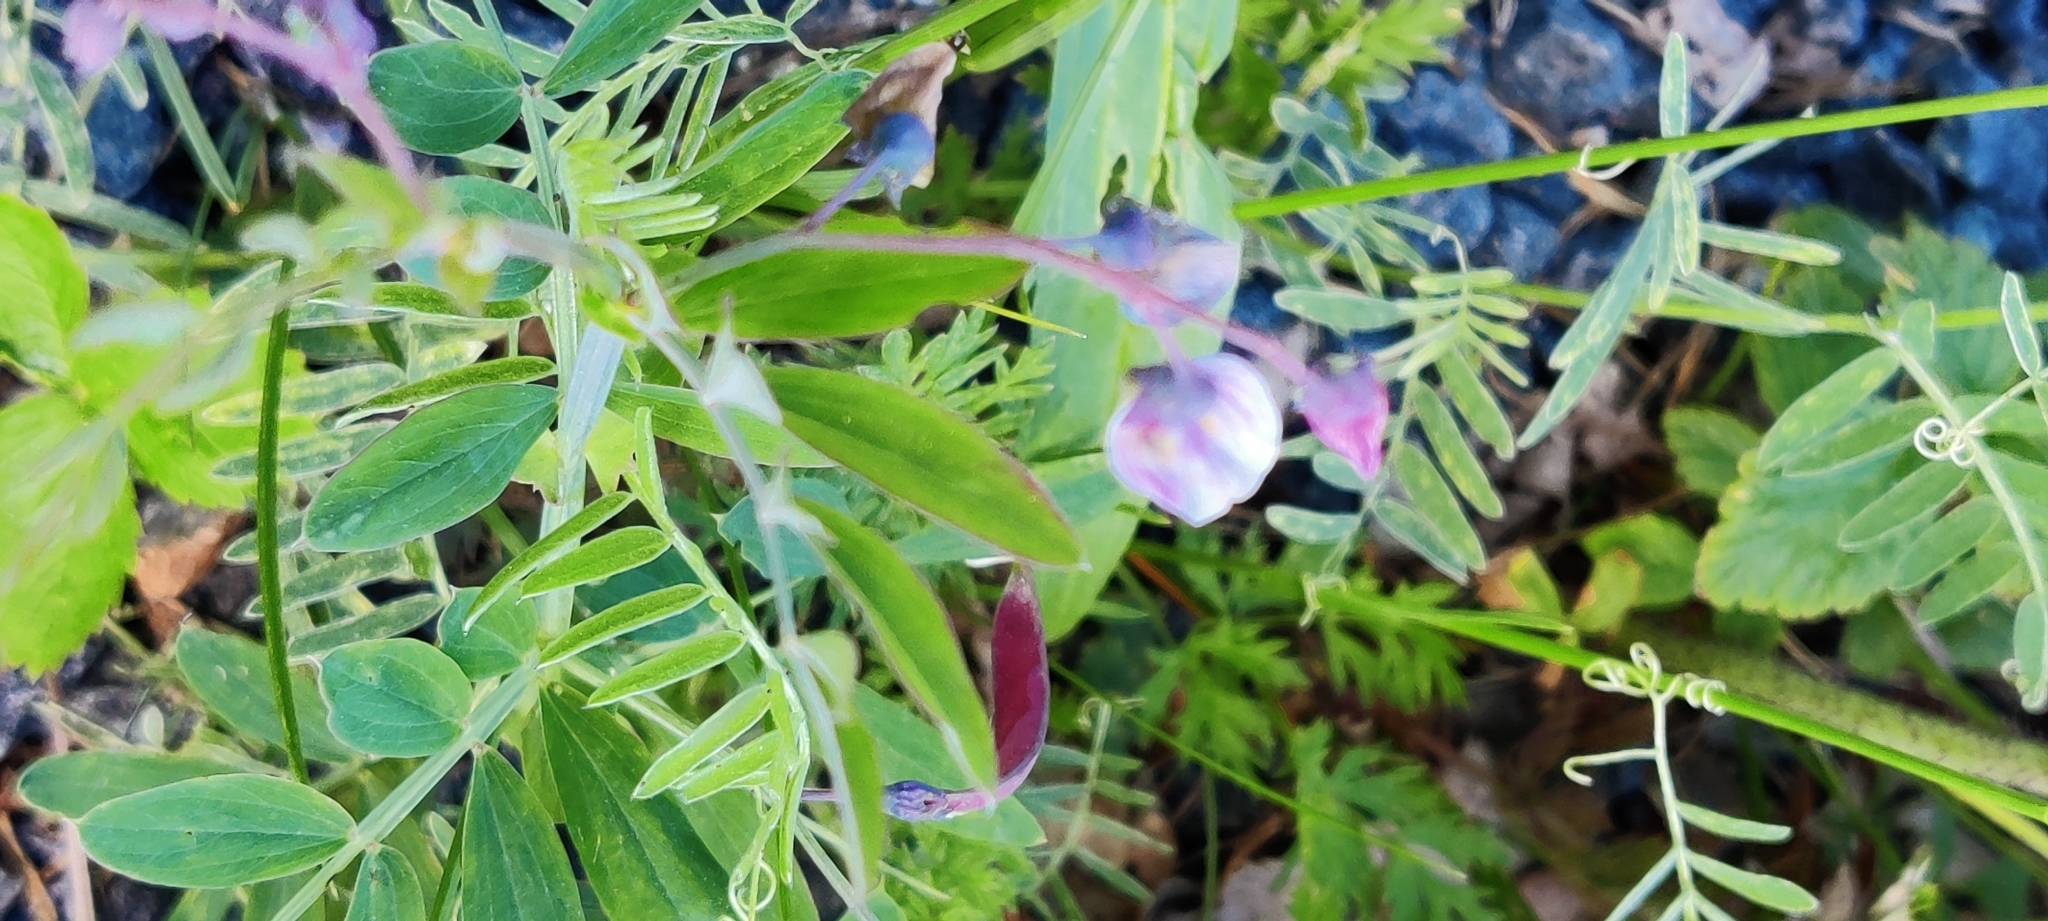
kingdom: Plantae
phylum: Tracheophyta
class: Magnoliopsida
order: Fabales
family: Fabaceae
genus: Lathyrus
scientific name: Lathyrus linifolius
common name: Bitter-vetch
